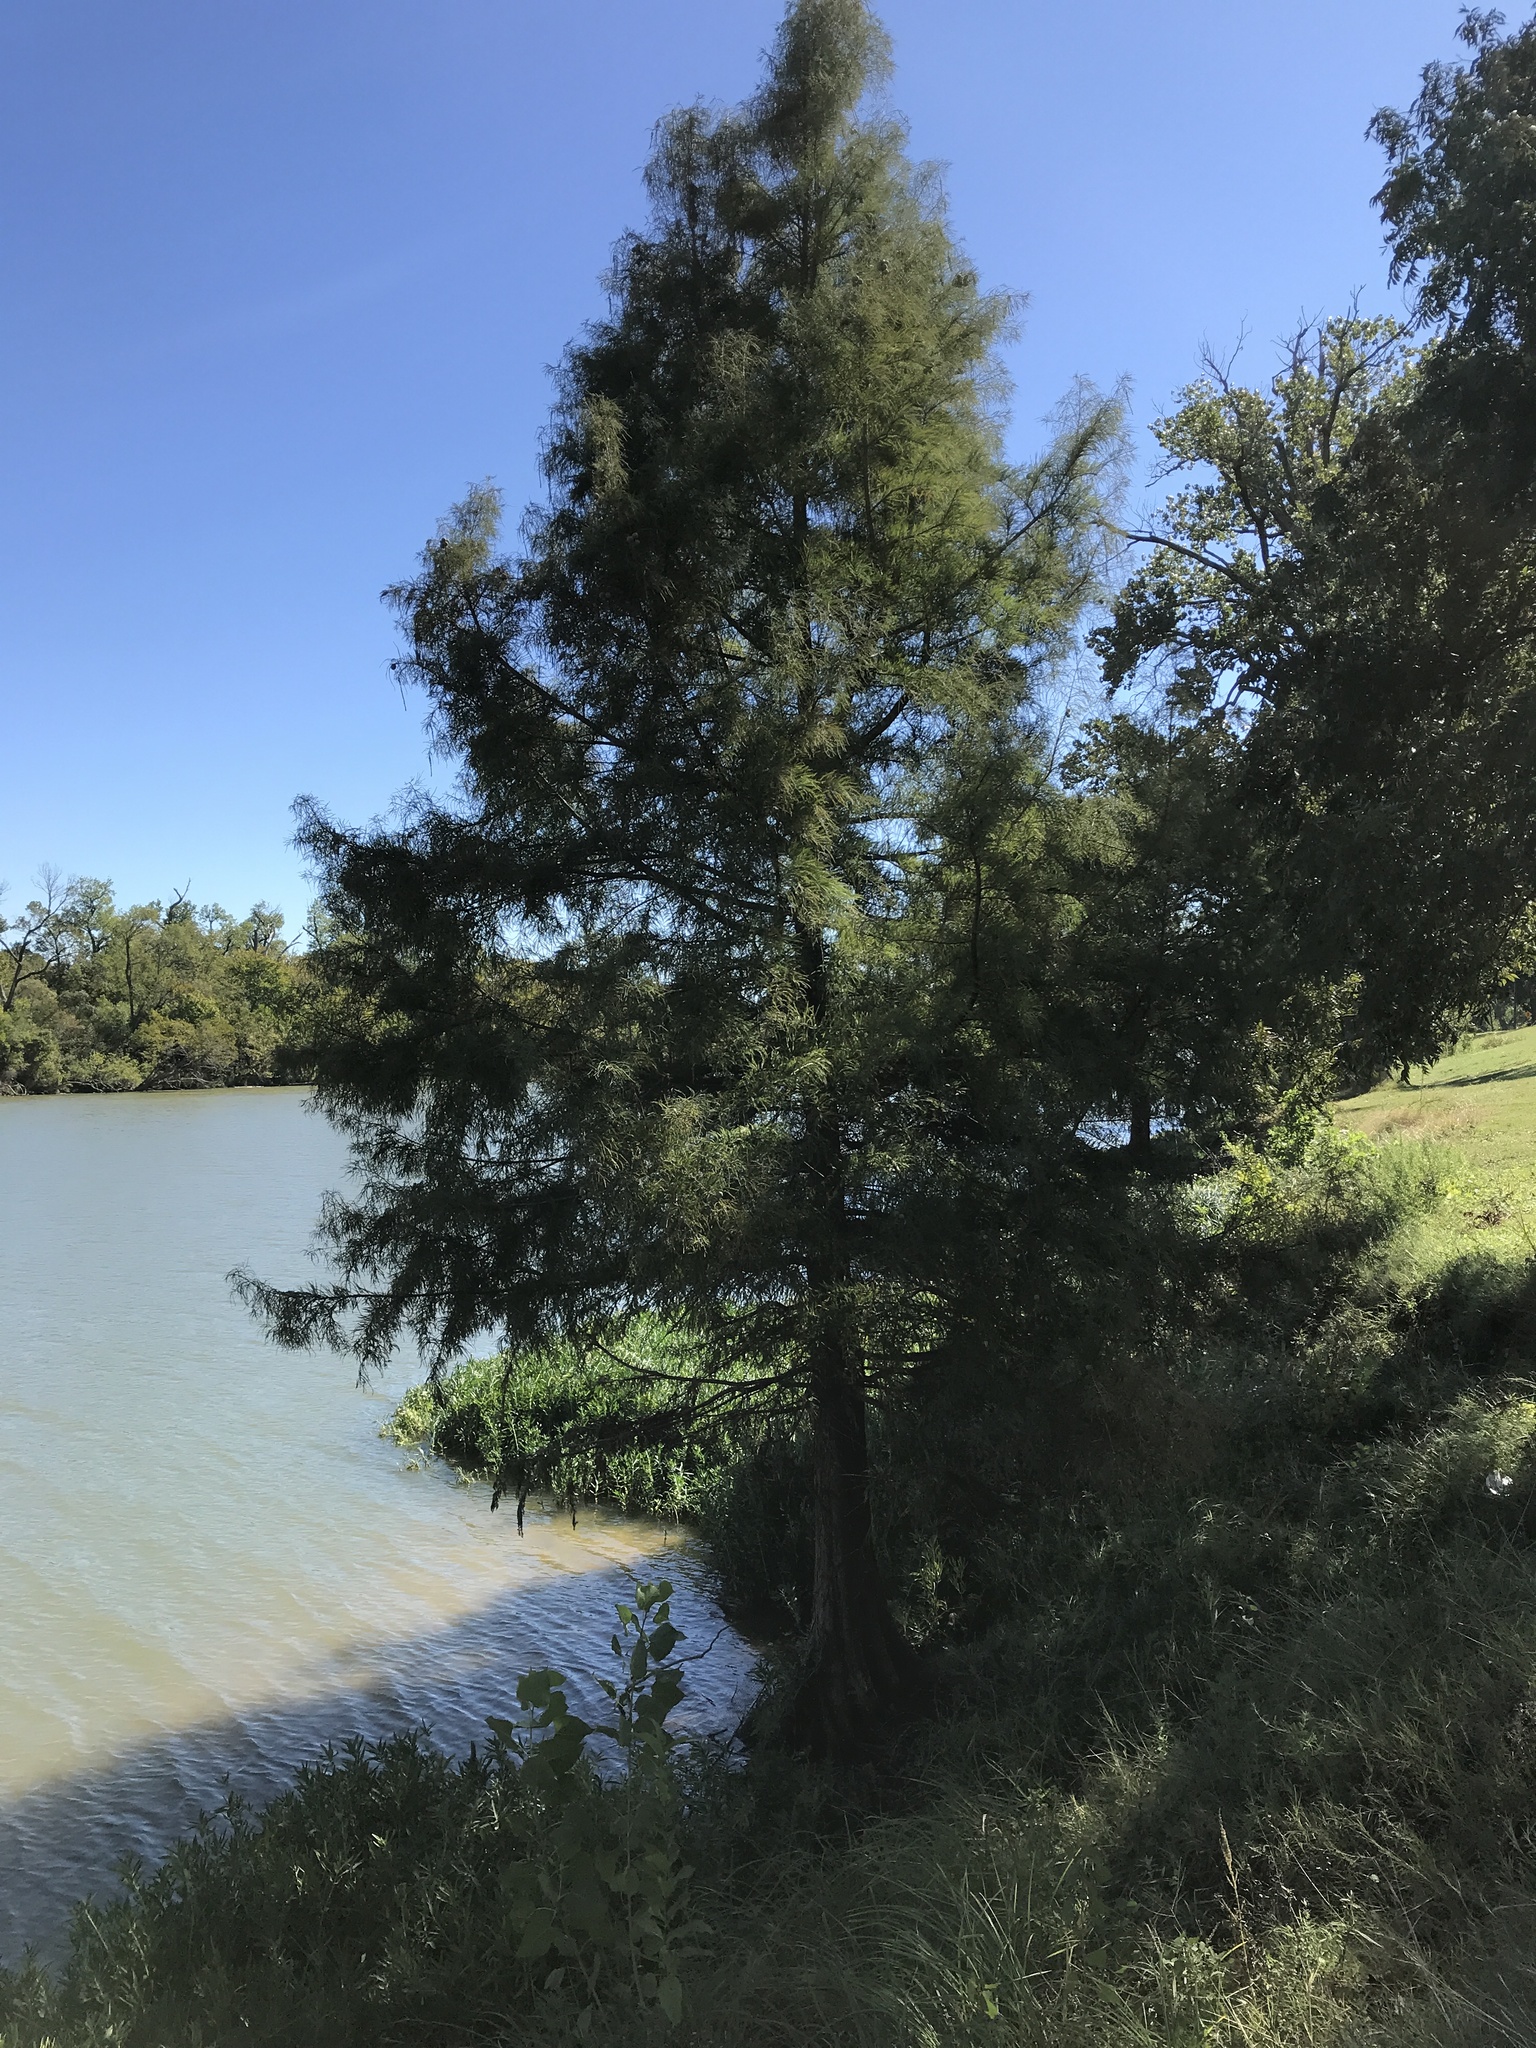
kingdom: Plantae
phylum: Tracheophyta
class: Pinopsida
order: Pinales
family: Cupressaceae
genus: Taxodium
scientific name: Taxodium distichum
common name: Bald cypress
